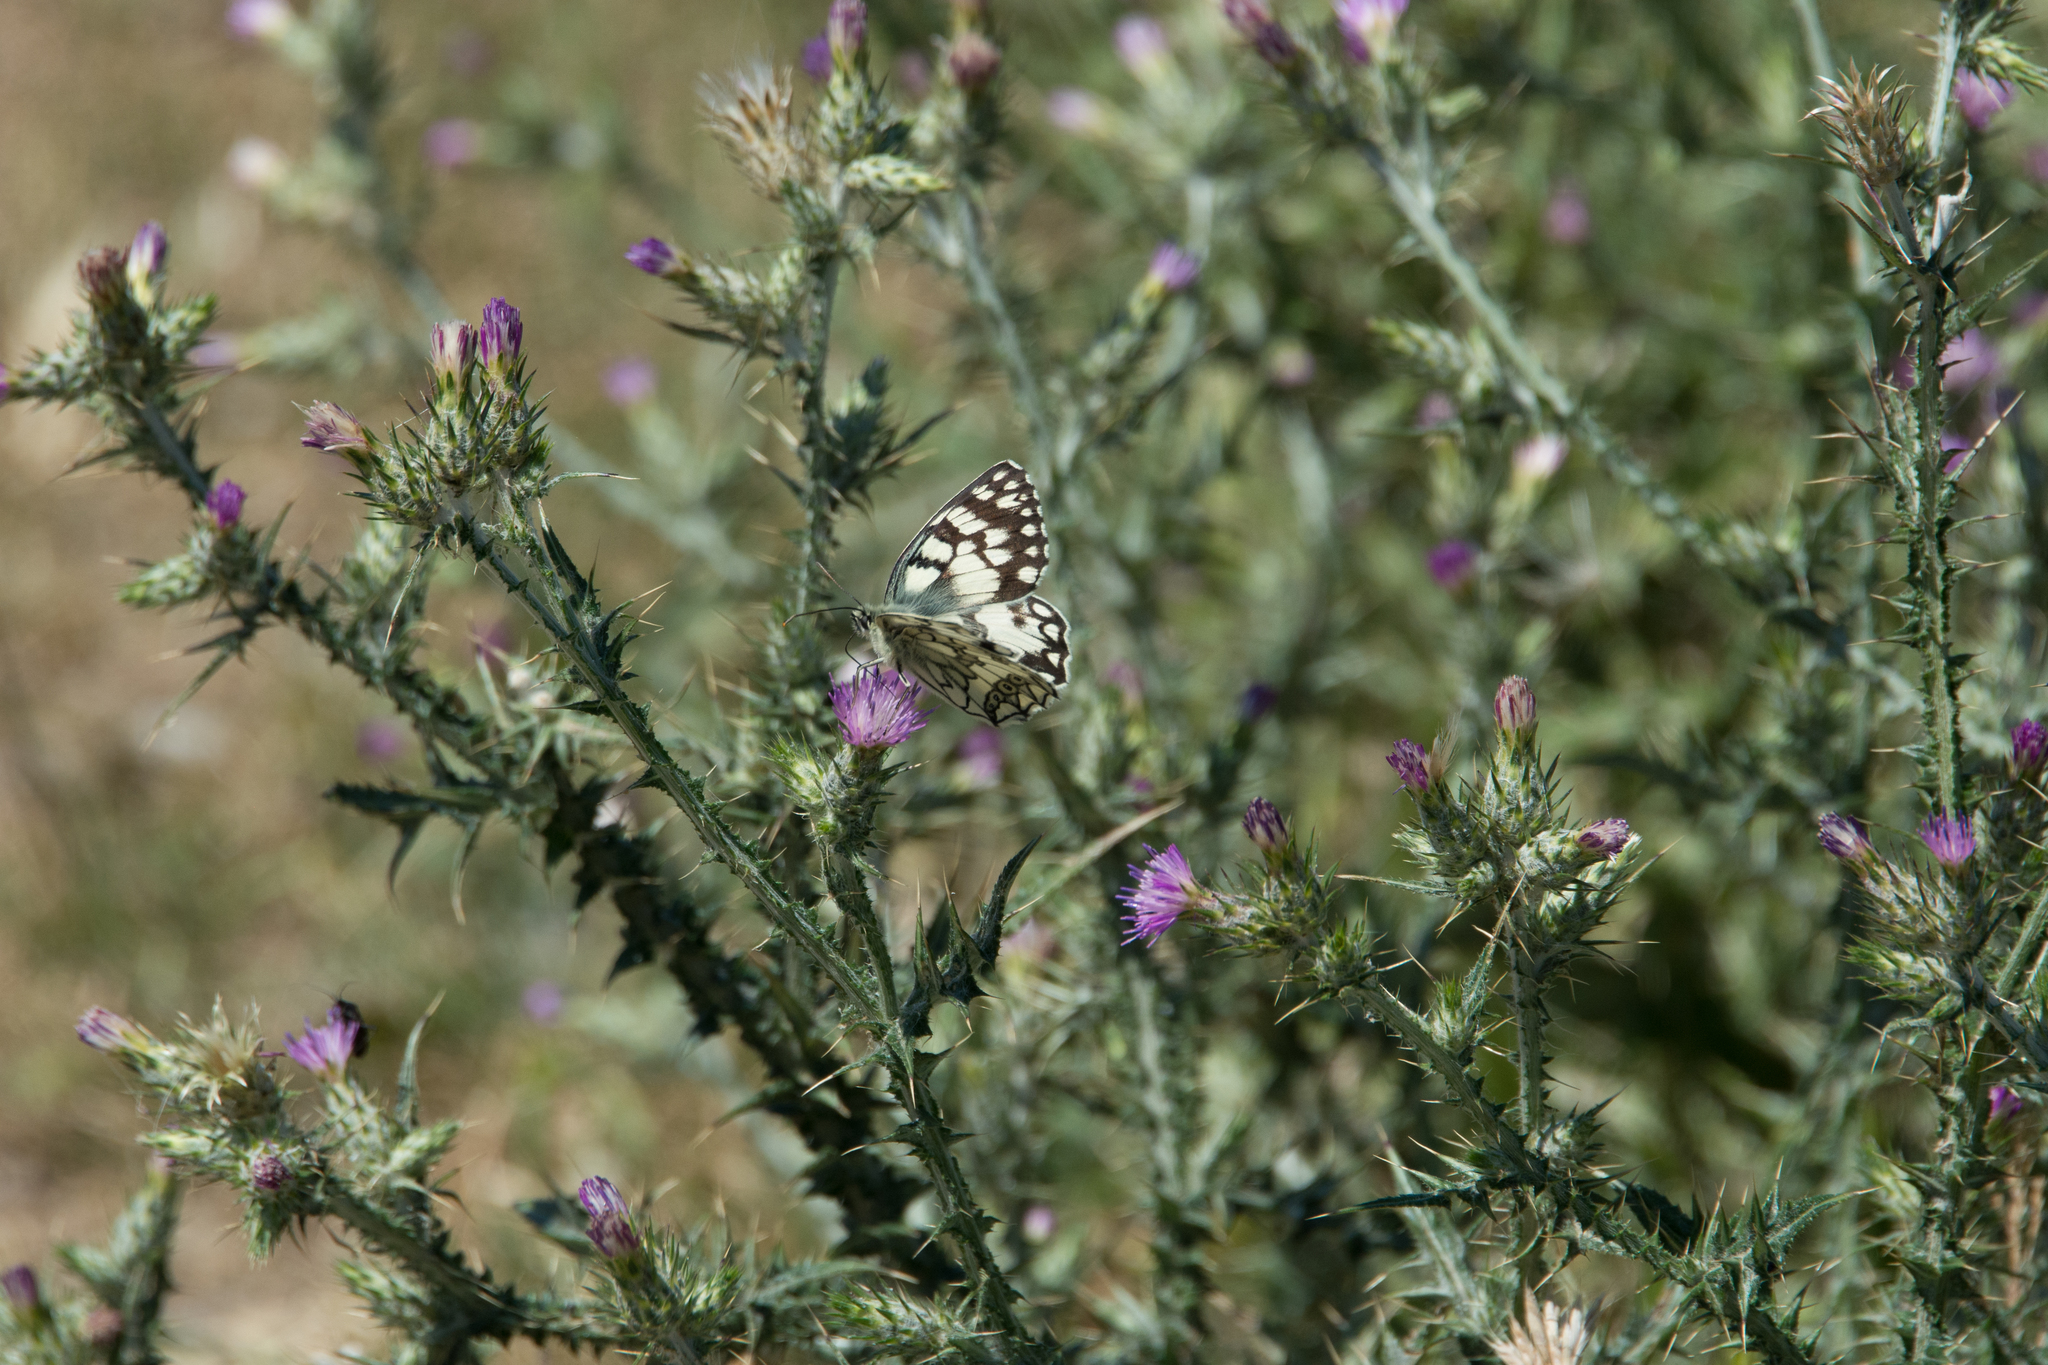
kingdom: Plantae
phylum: Tracheophyta
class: Magnoliopsida
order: Asterales
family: Asteraceae
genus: Carduus
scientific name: Carduus pycnocephalus
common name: Plymouth thistle
